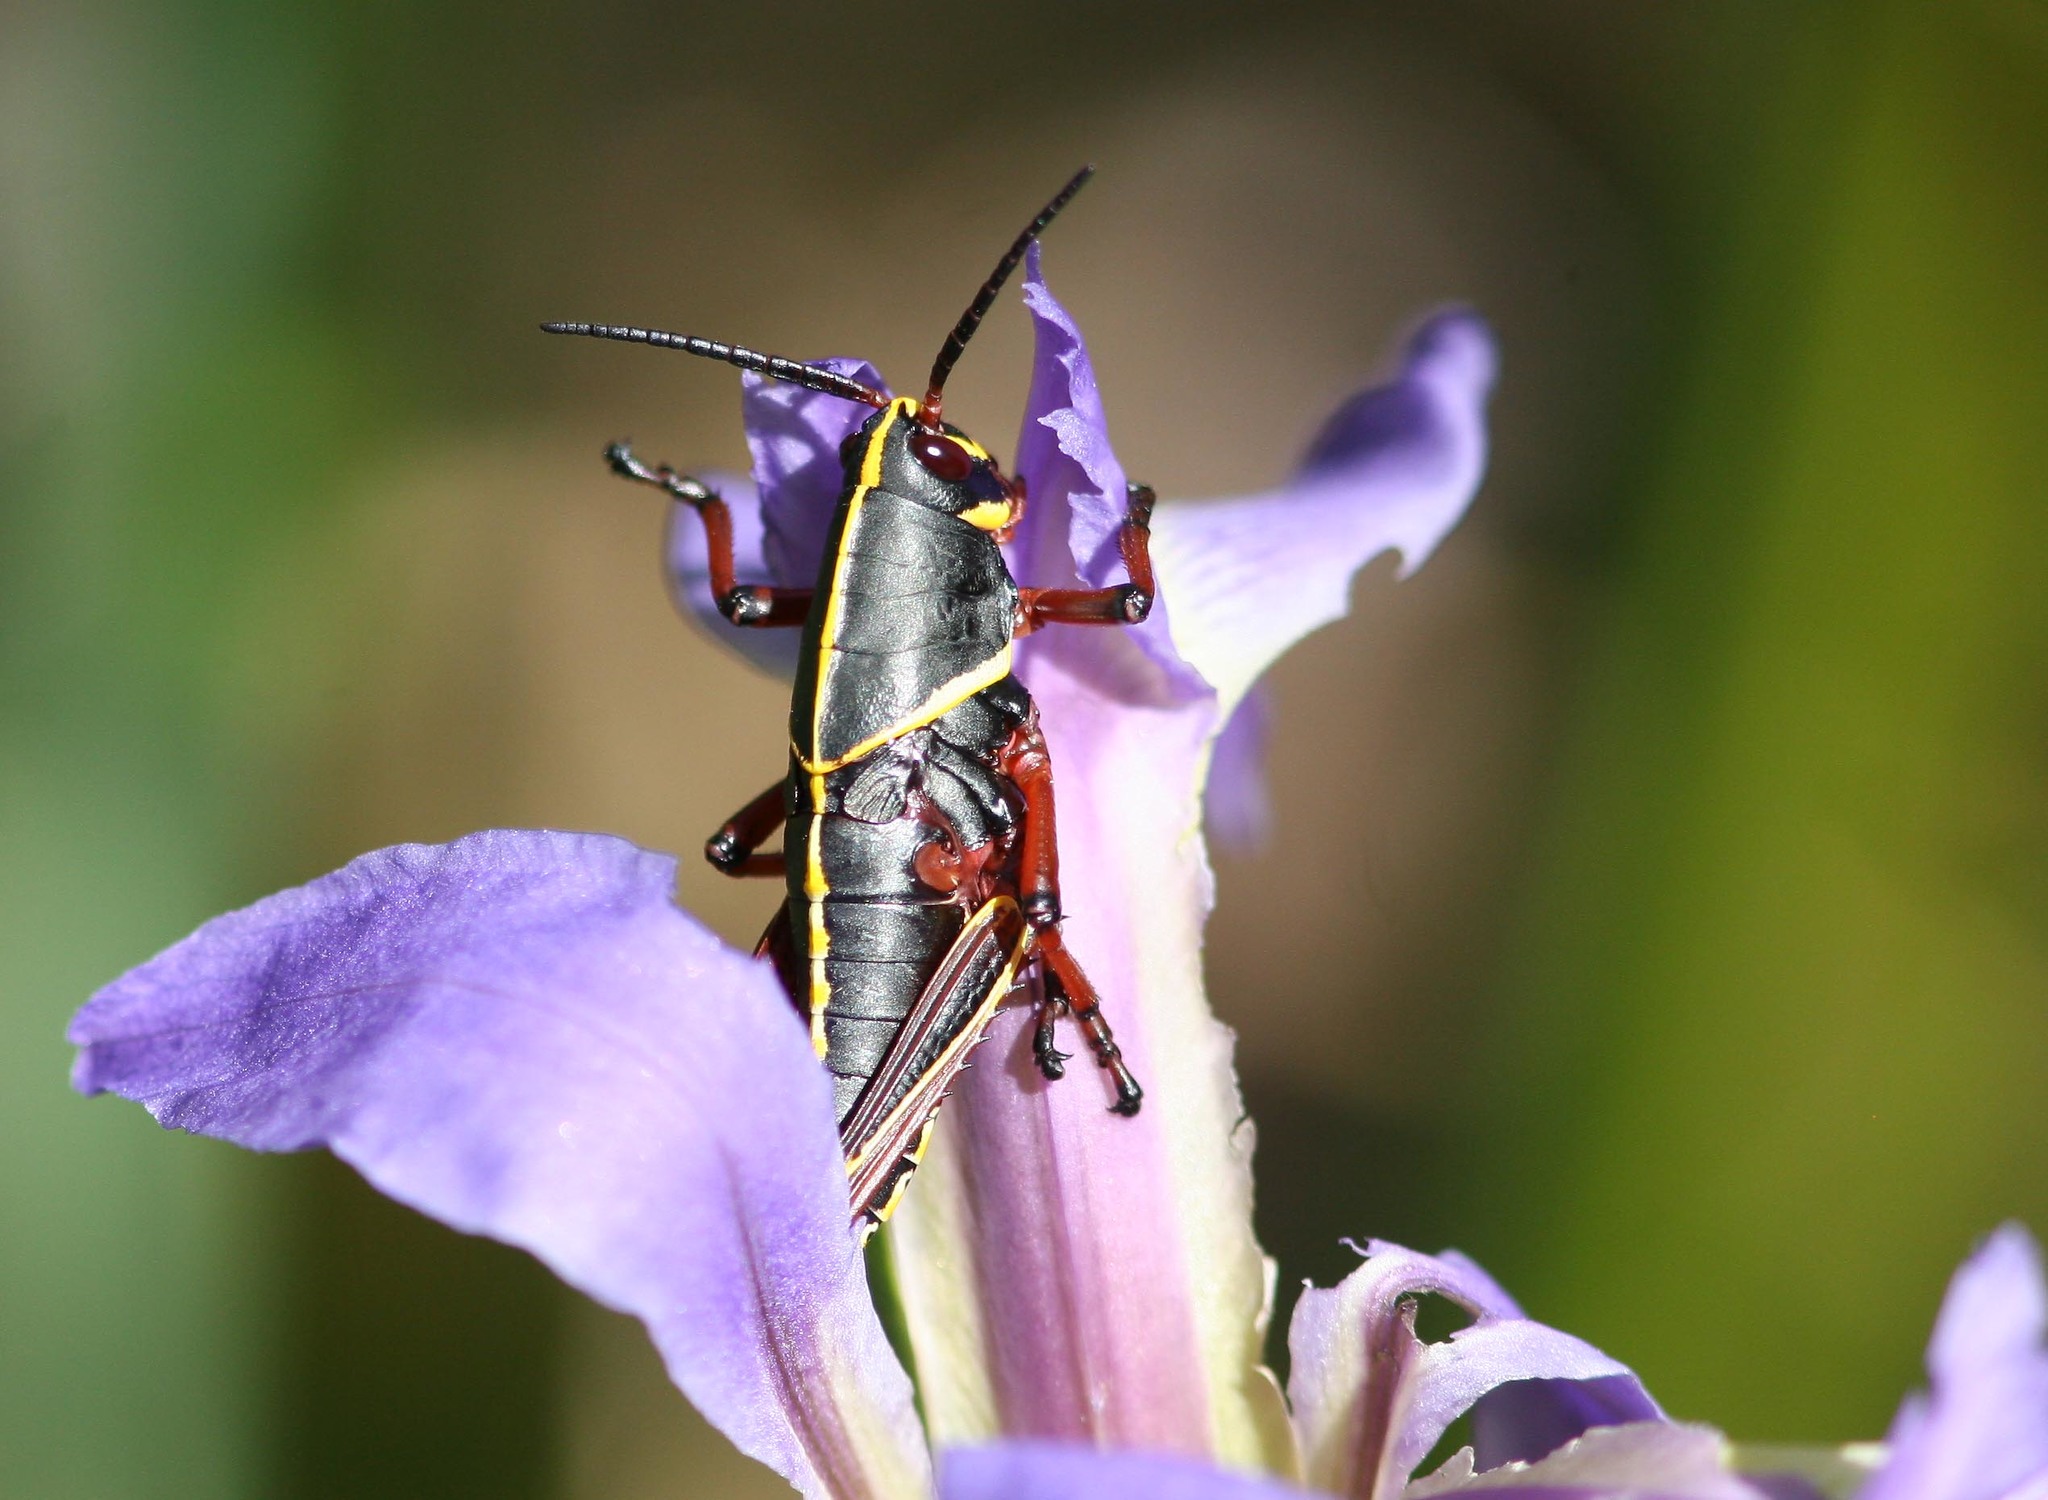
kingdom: Animalia
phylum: Arthropoda
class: Insecta
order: Orthoptera
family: Romaleidae
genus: Romalea
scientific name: Romalea microptera
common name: Eastern lubber grasshopper
